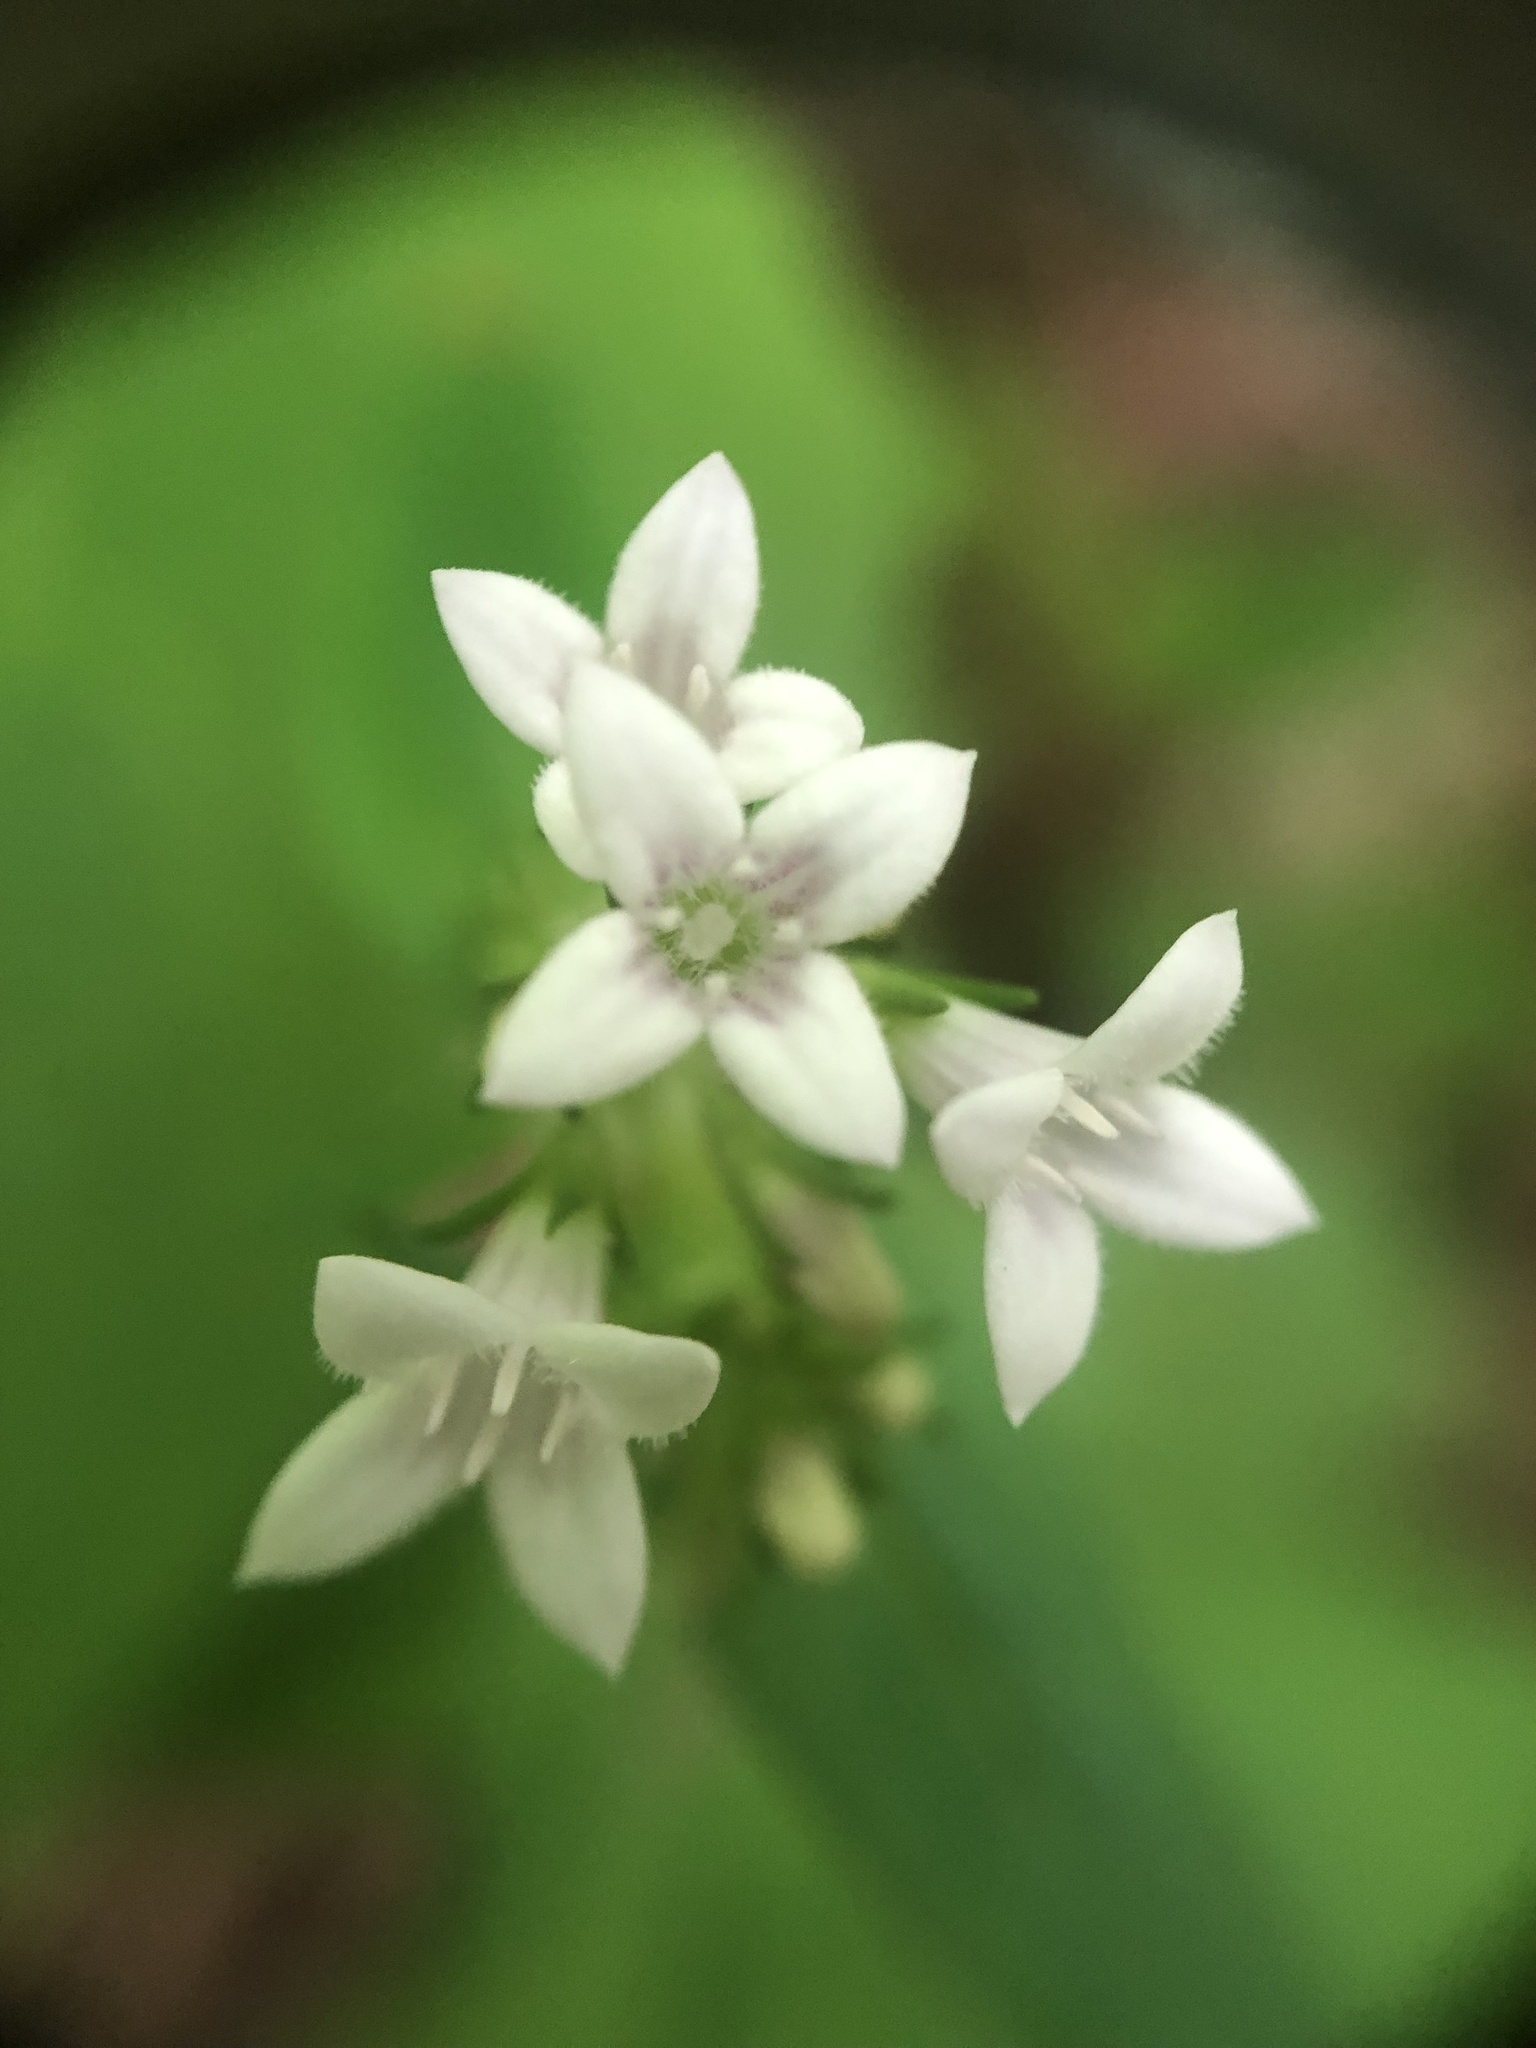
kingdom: Plantae
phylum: Tracheophyta
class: Magnoliopsida
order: Gentianales
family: Rubiaceae
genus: Houstonia
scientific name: Houstonia purpurea
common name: Summer bluet
